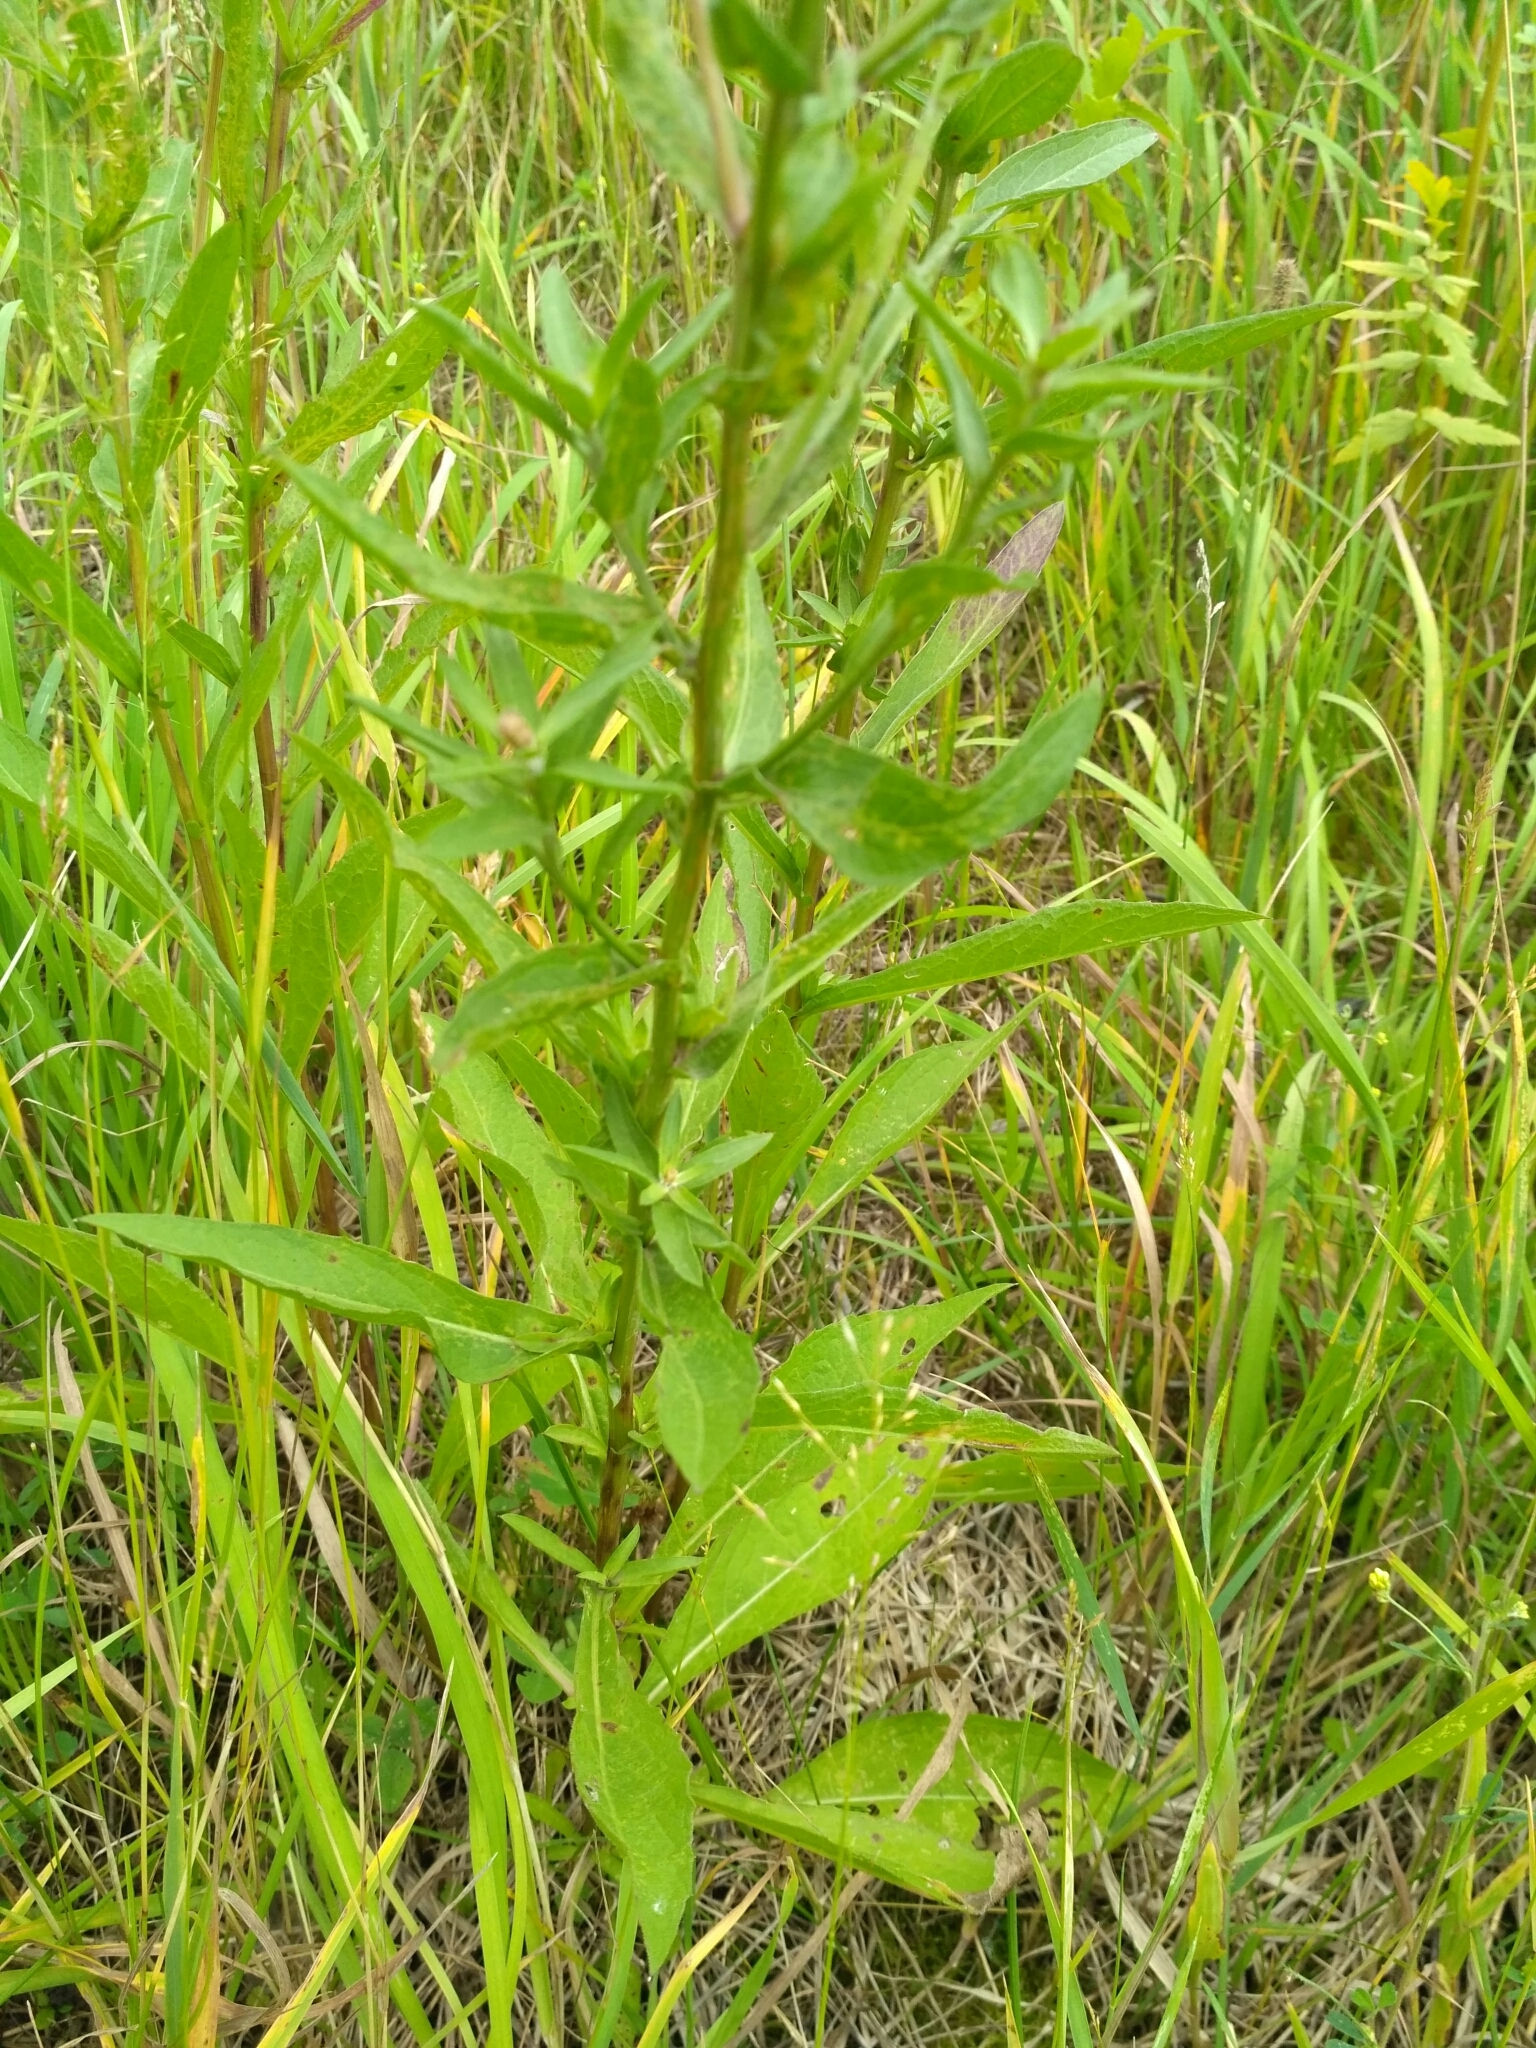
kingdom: Plantae
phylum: Tracheophyta
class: Magnoliopsida
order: Asterales
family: Asteraceae
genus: Centaurea
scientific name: Centaurea jacea
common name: Brown knapweed
